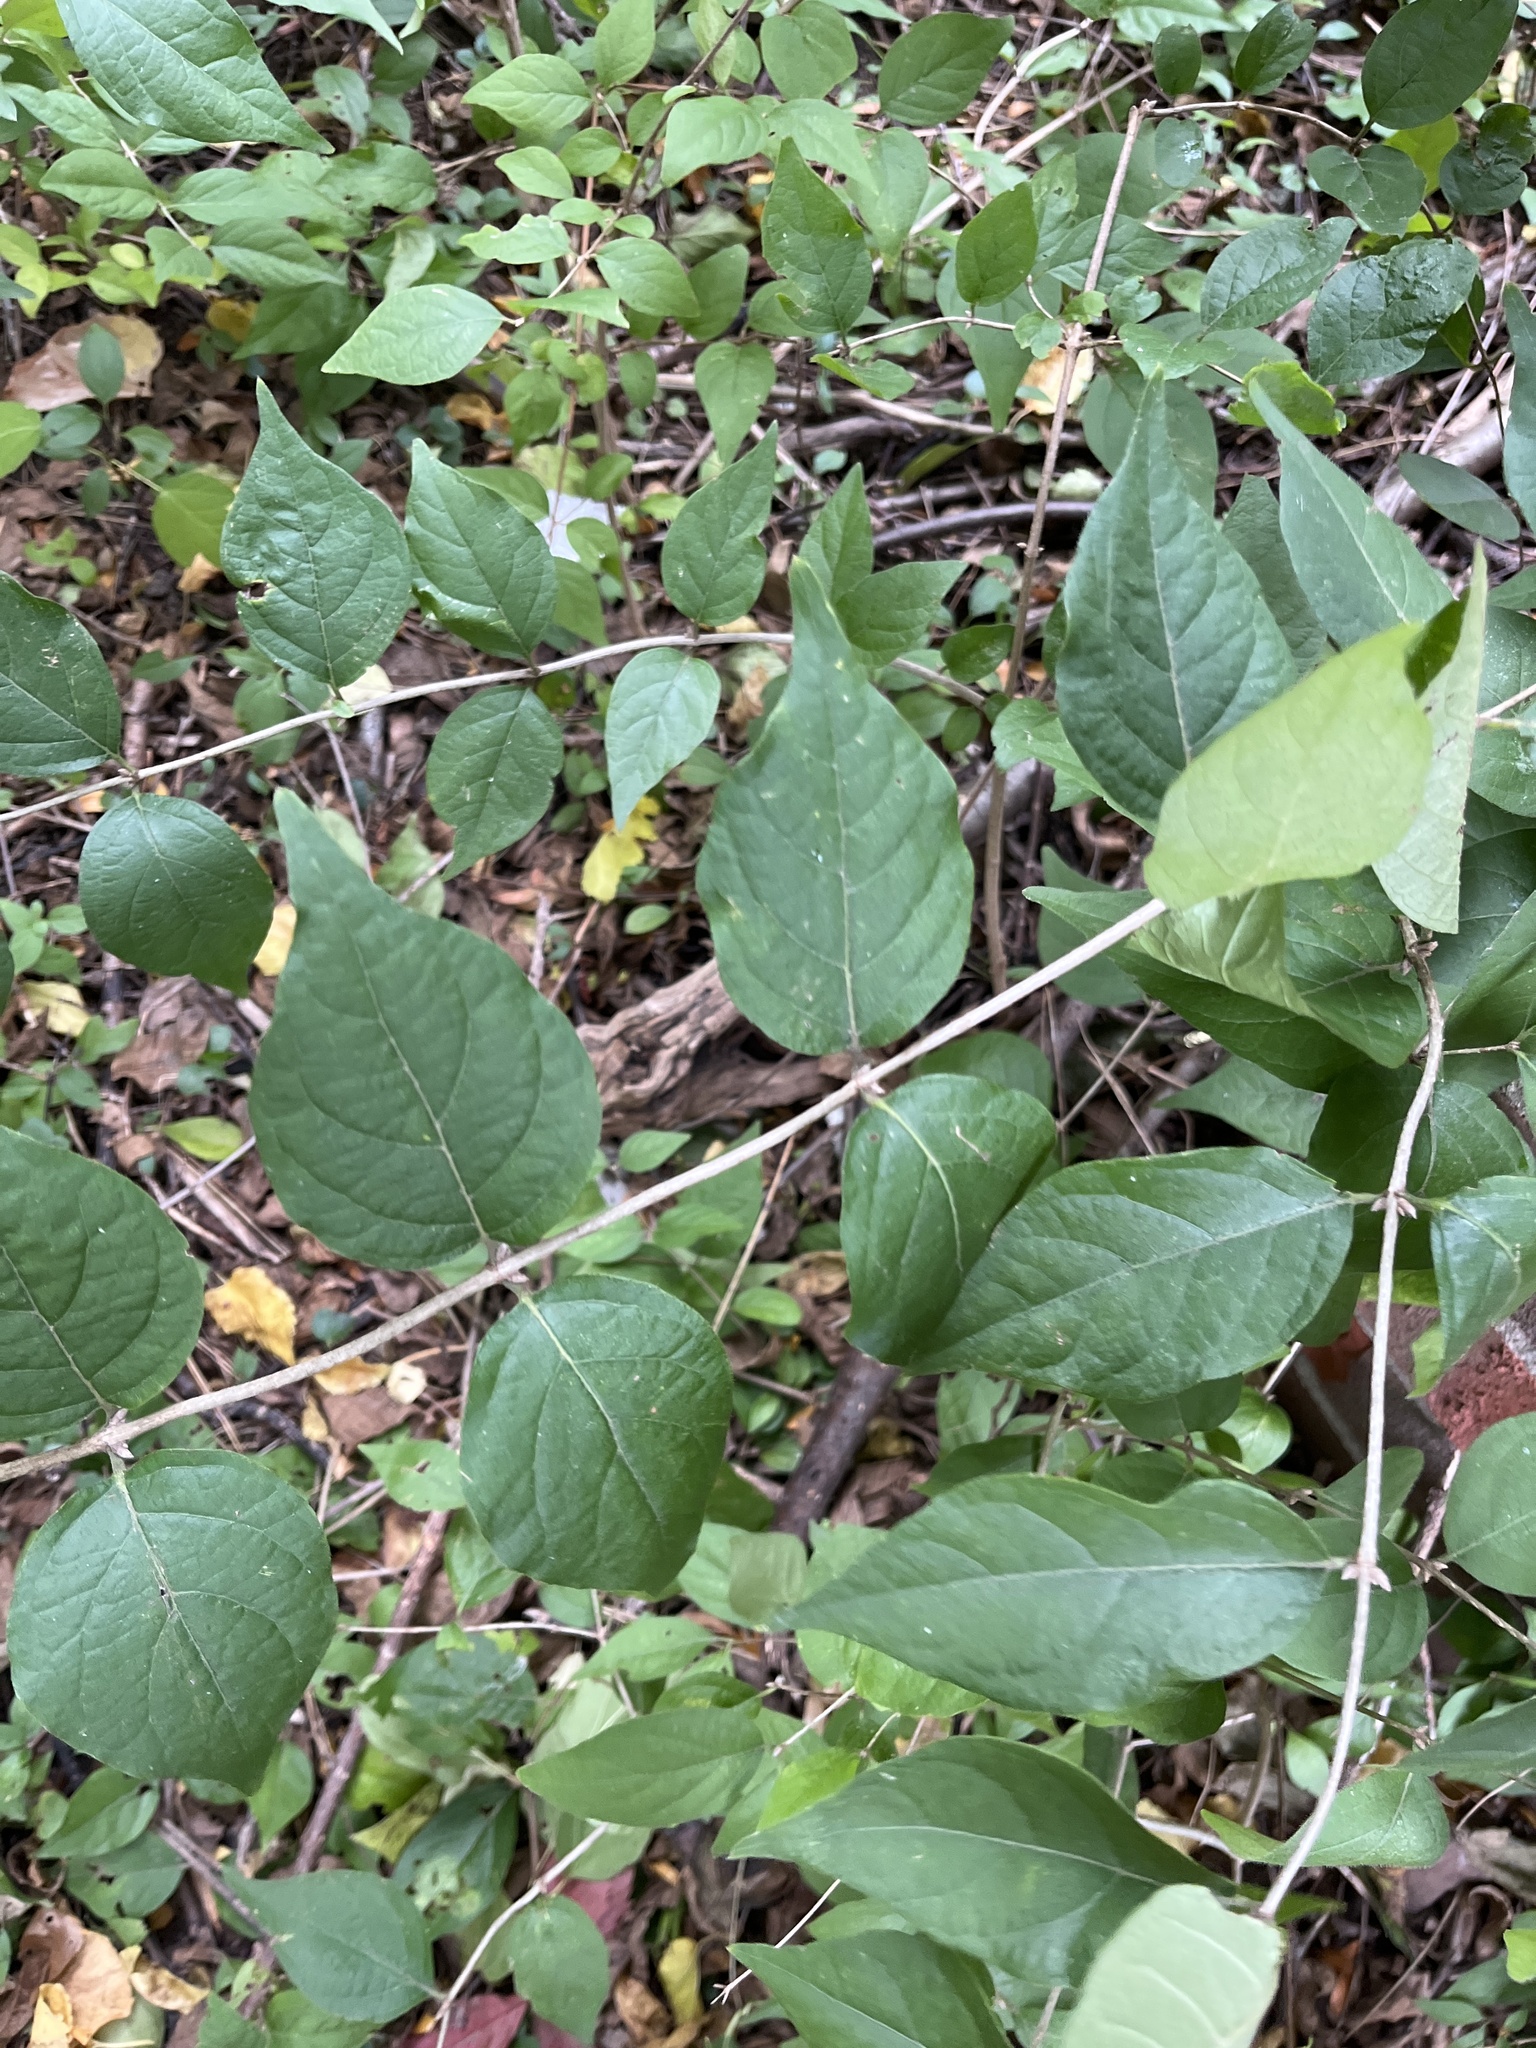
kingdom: Plantae
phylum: Tracheophyta
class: Magnoliopsida
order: Dipsacales
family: Caprifoliaceae
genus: Lonicera
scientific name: Lonicera maackii
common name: Amur honeysuckle
